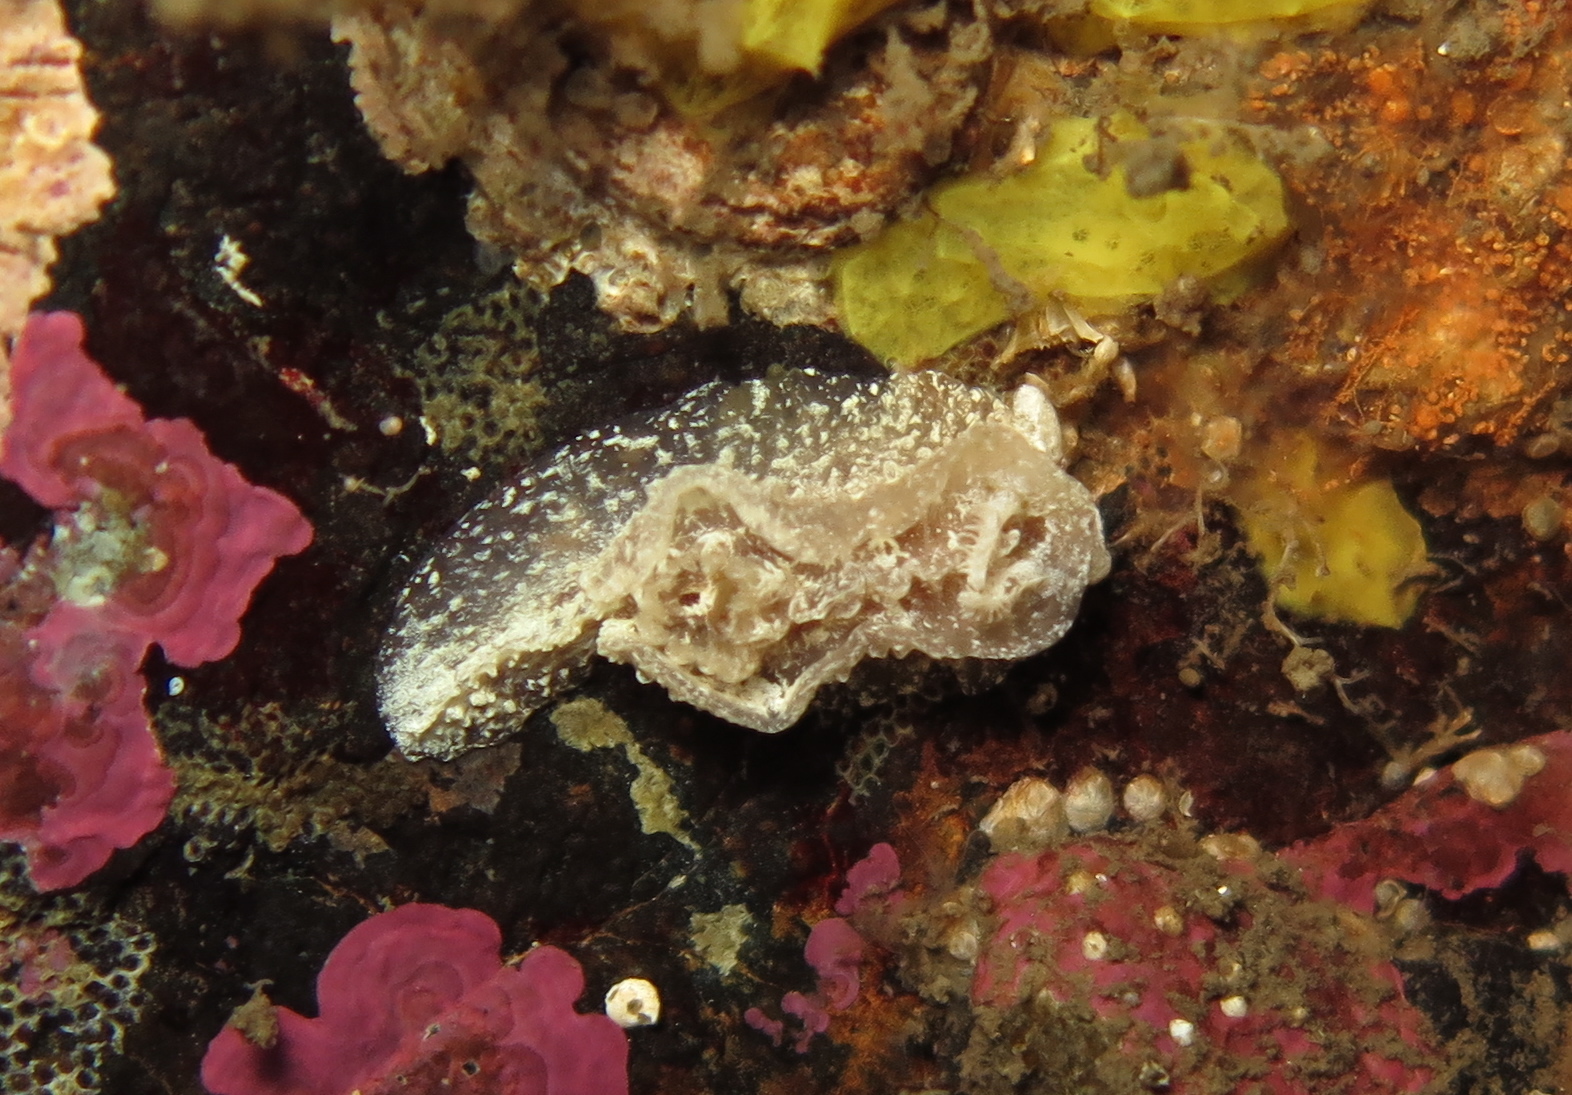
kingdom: Animalia
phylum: Mollusca
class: Gastropoda
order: Nudibranchia
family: Goniodorididae
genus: Pelagella
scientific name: Pelagella castanea
